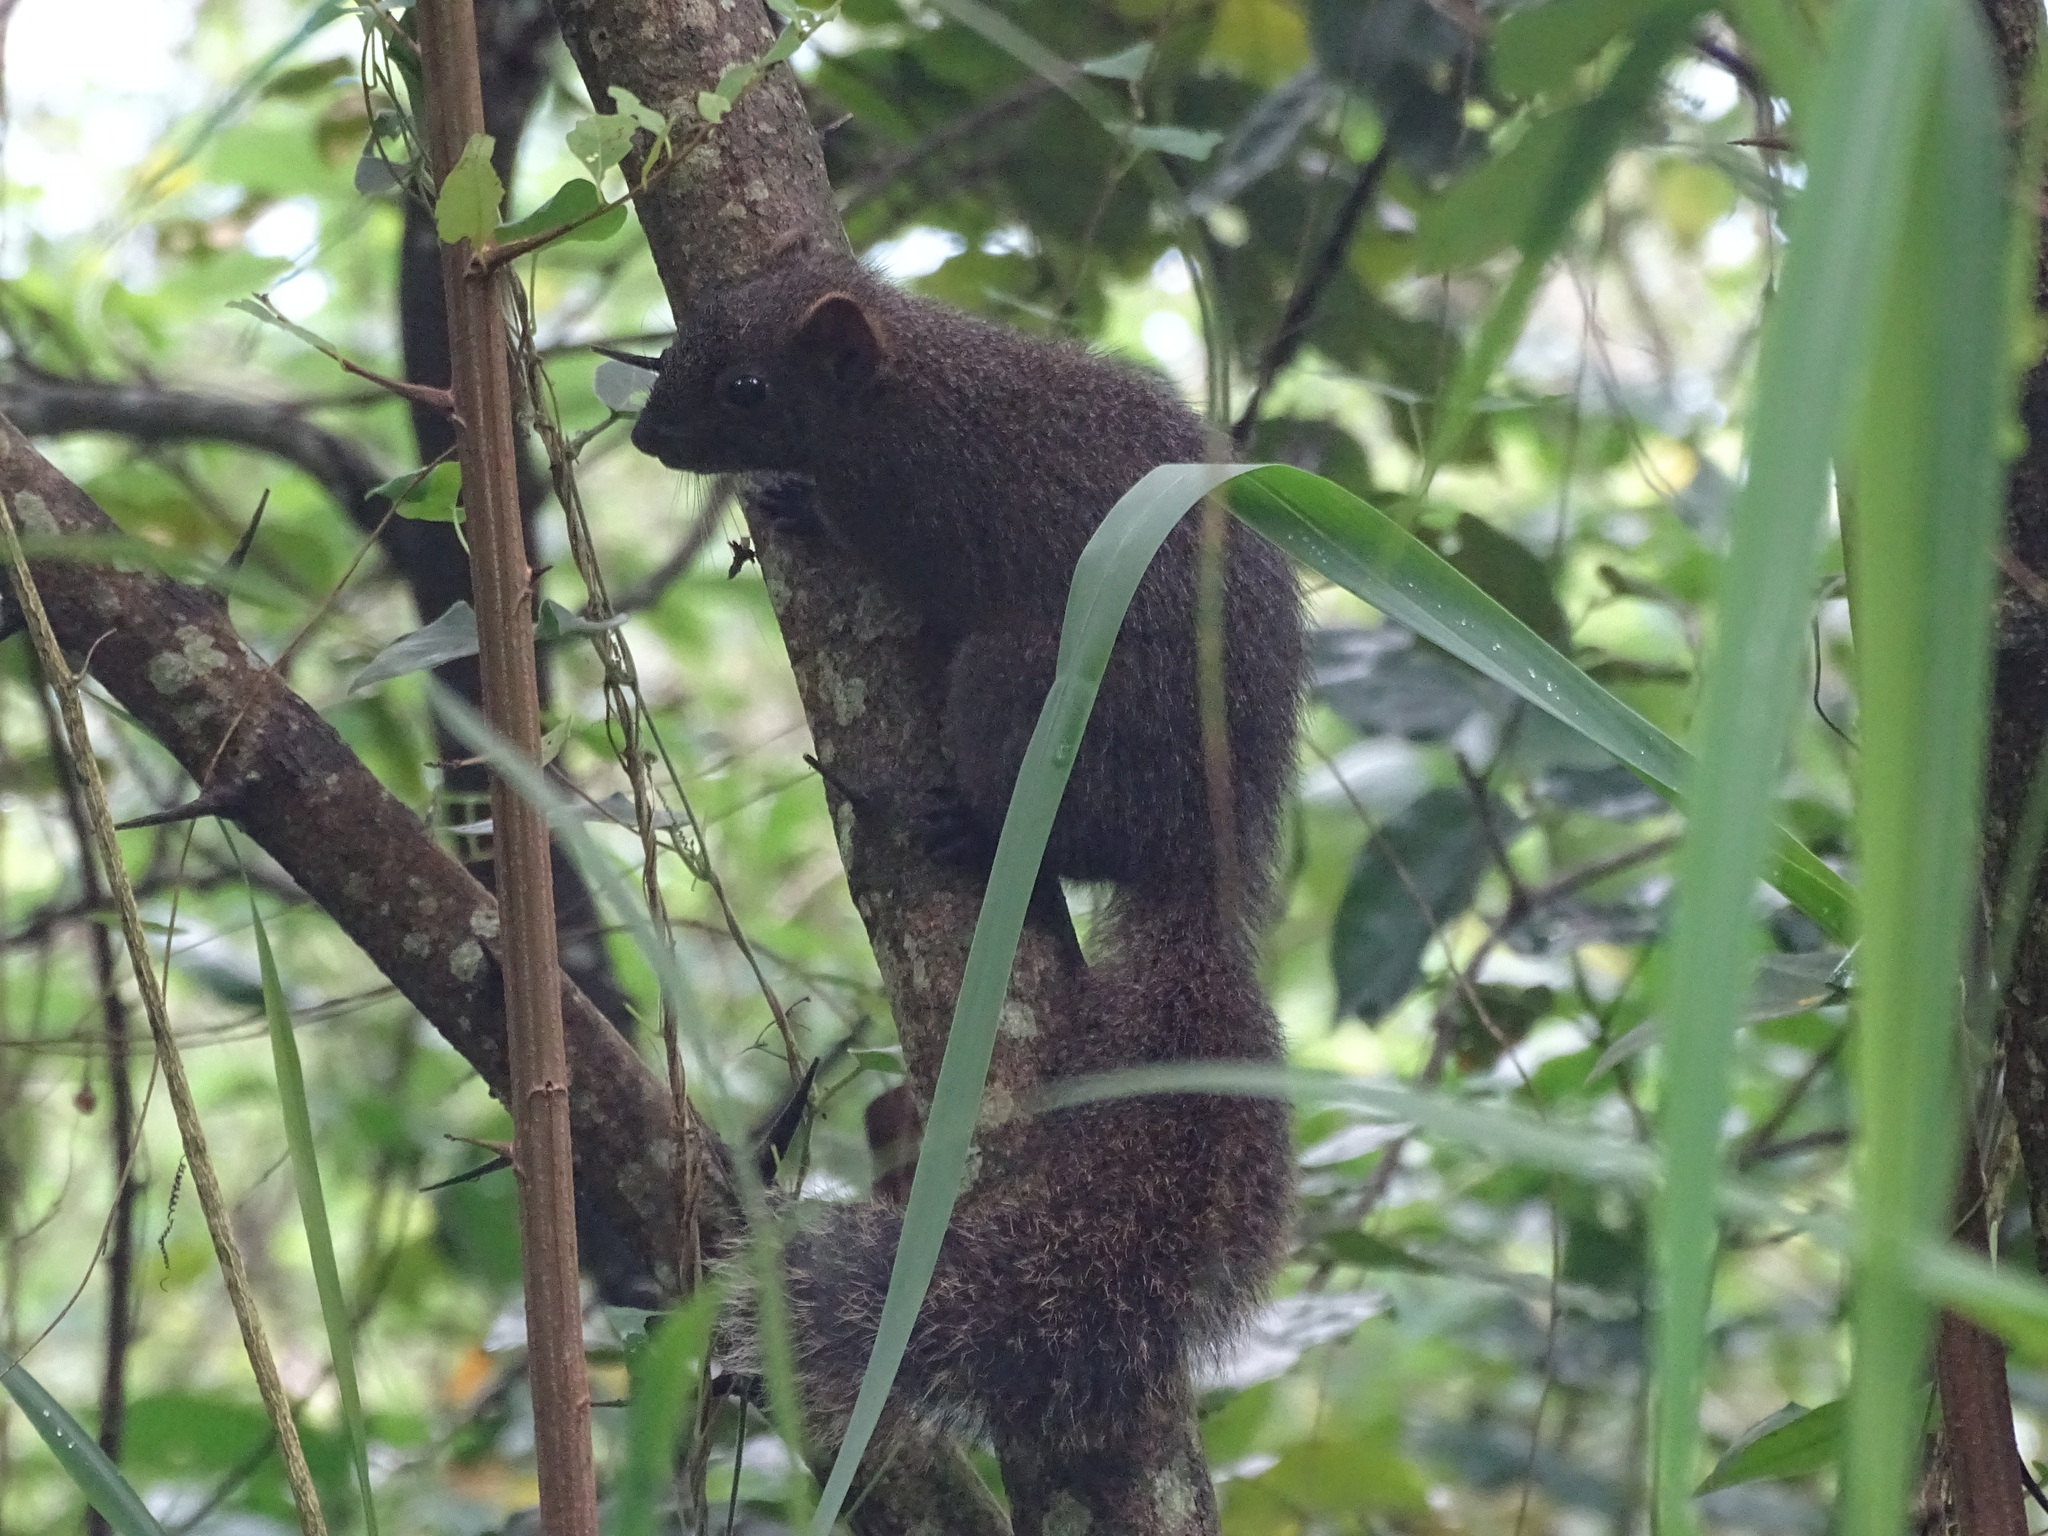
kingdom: Animalia
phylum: Chordata
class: Mammalia
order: Rodentia
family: Sciuridae
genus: Callosciurus
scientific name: Callosciurus erythraeus
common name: Pallas's squirrel
